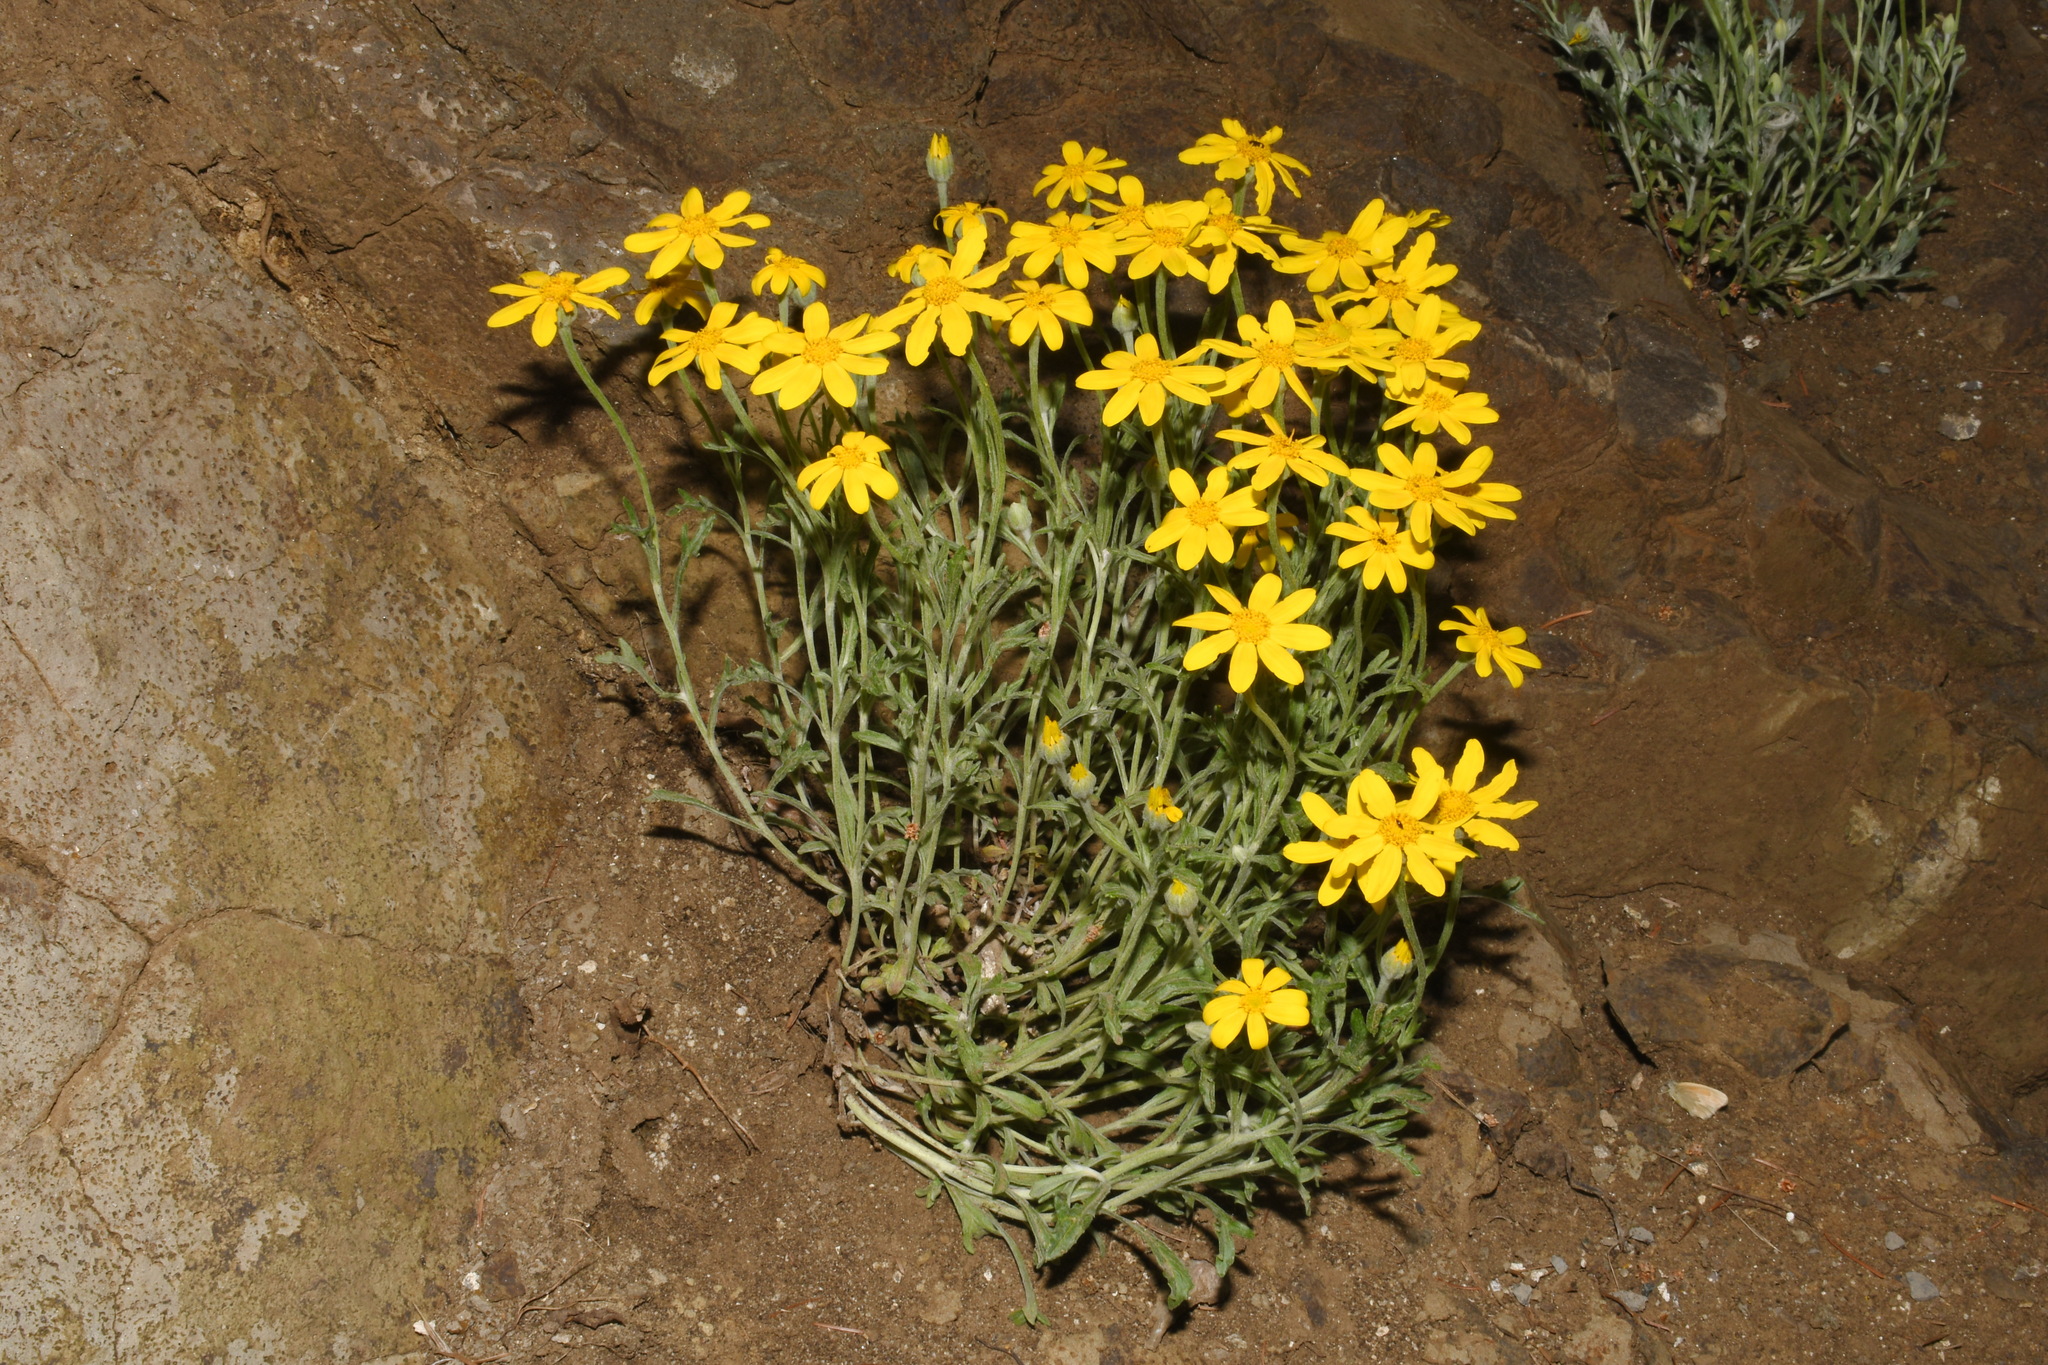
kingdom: Plantae
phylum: Tracheophyta
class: Magnoliopsida
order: Asterales
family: Asteraceae
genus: Eriophyllum
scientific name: Eriophyllum lanatum
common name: Common woolly-sunflower
